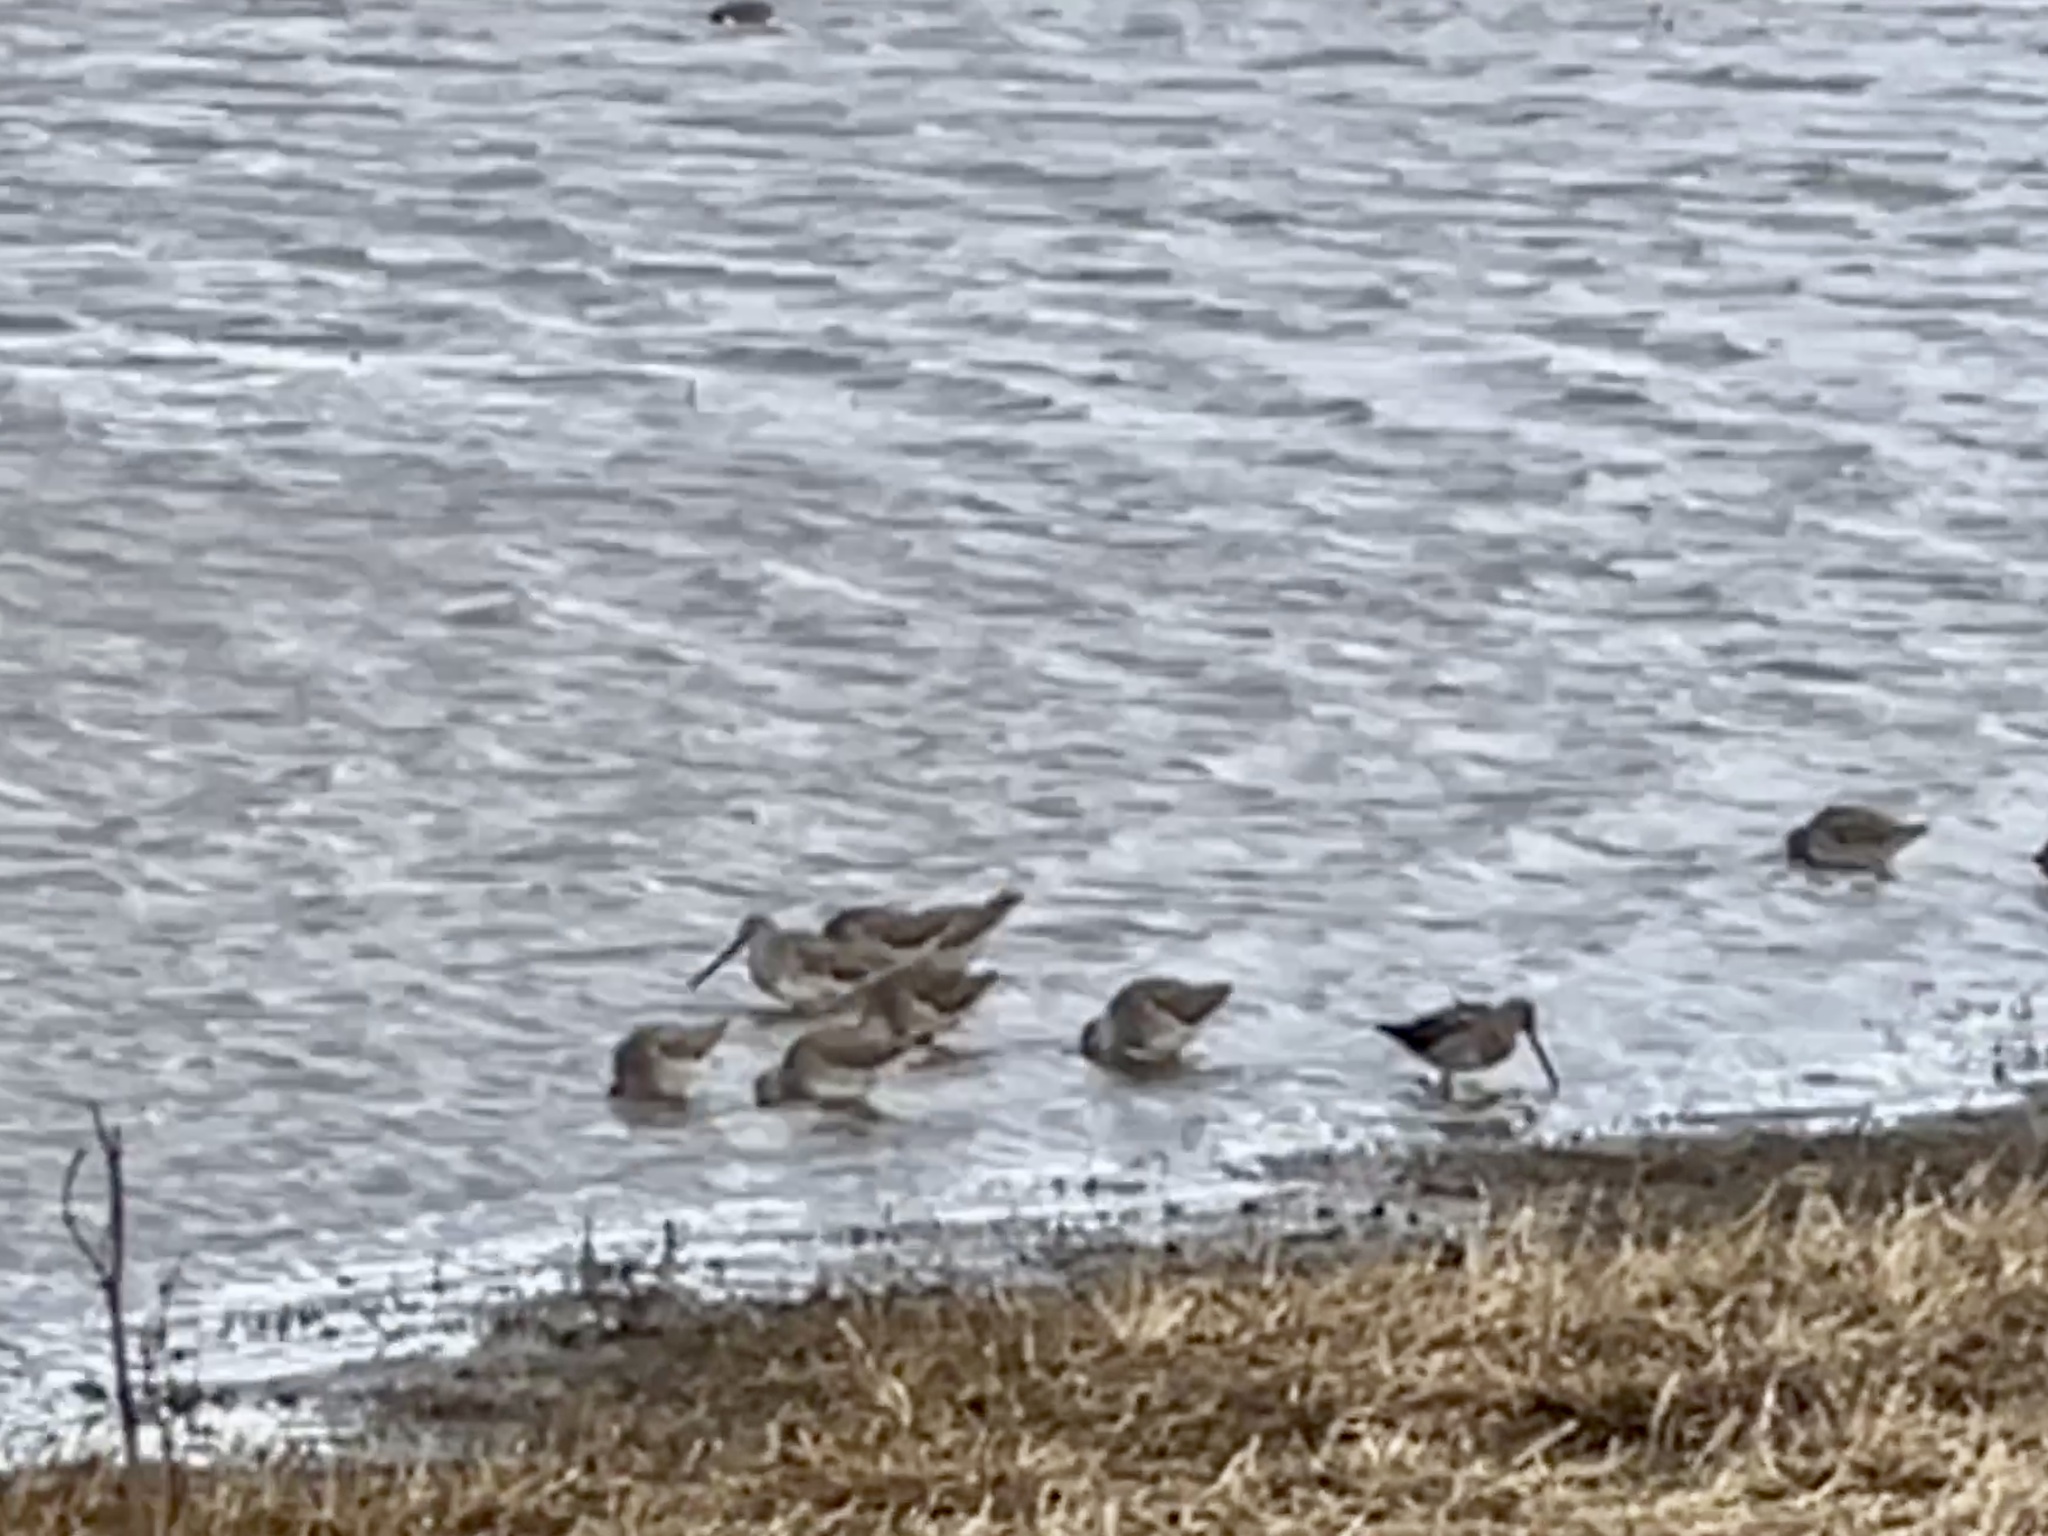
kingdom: Animalia
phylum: Chordata
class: Aves
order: Charadriiformes
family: Scolopacidae
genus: Limnodromus
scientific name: Limnodromus scolopaceus
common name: Long-billed dowitcher
